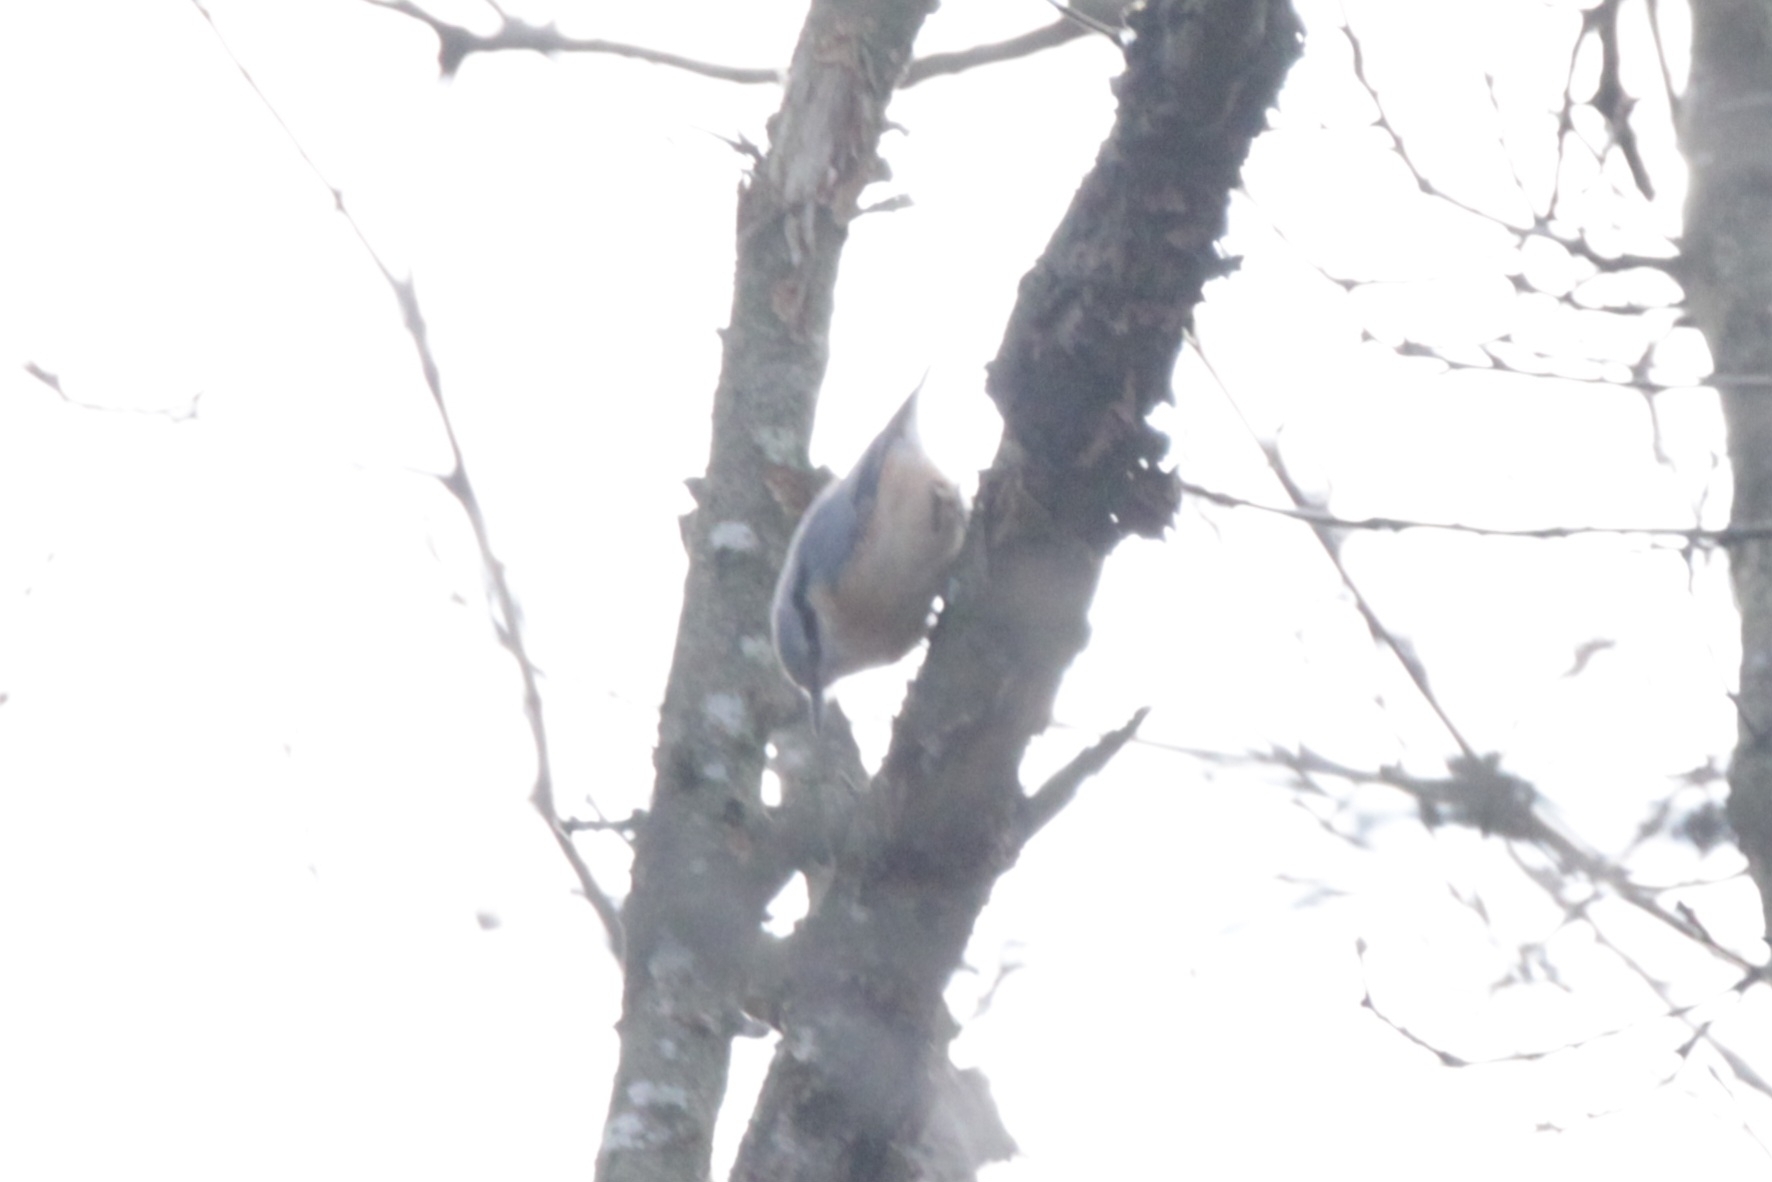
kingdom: Animalia
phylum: Chordata
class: Aves
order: Passeriformes
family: Sittidae
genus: Sitta
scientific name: Sitta europaea
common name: Eurasian nuthatch
